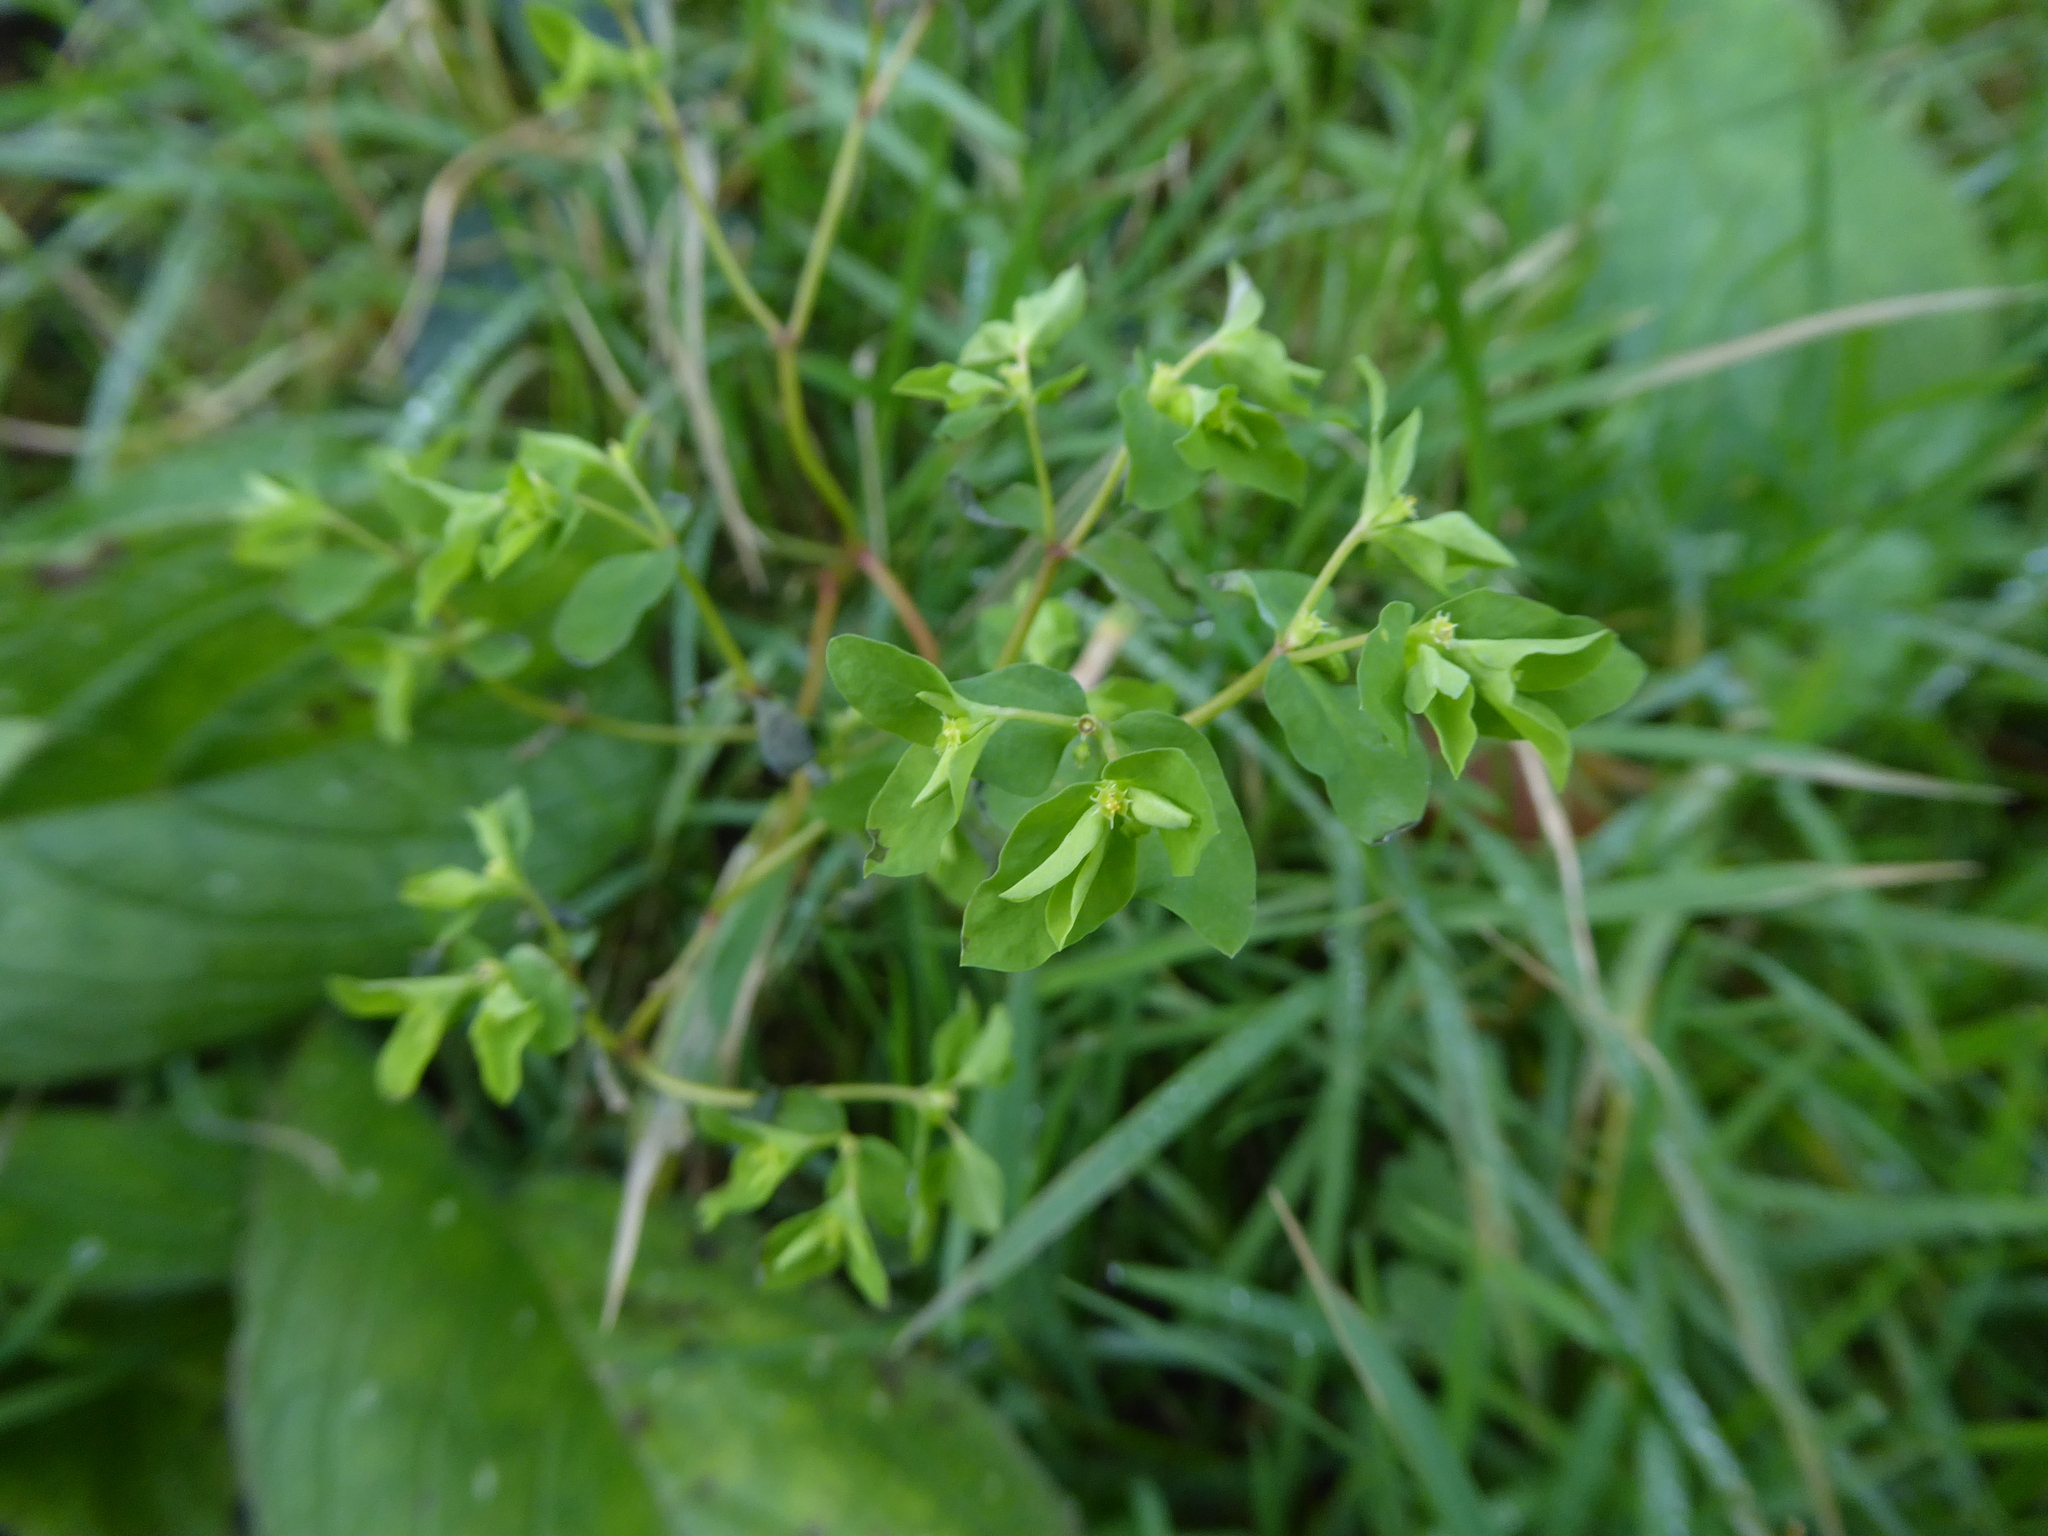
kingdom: Plantae
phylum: Tracheophyta
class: Magnoliopsida
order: Malpighiales
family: Euphorbiaceae
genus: Euphorbia
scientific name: Euphorbia peplus
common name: Petty spurge
